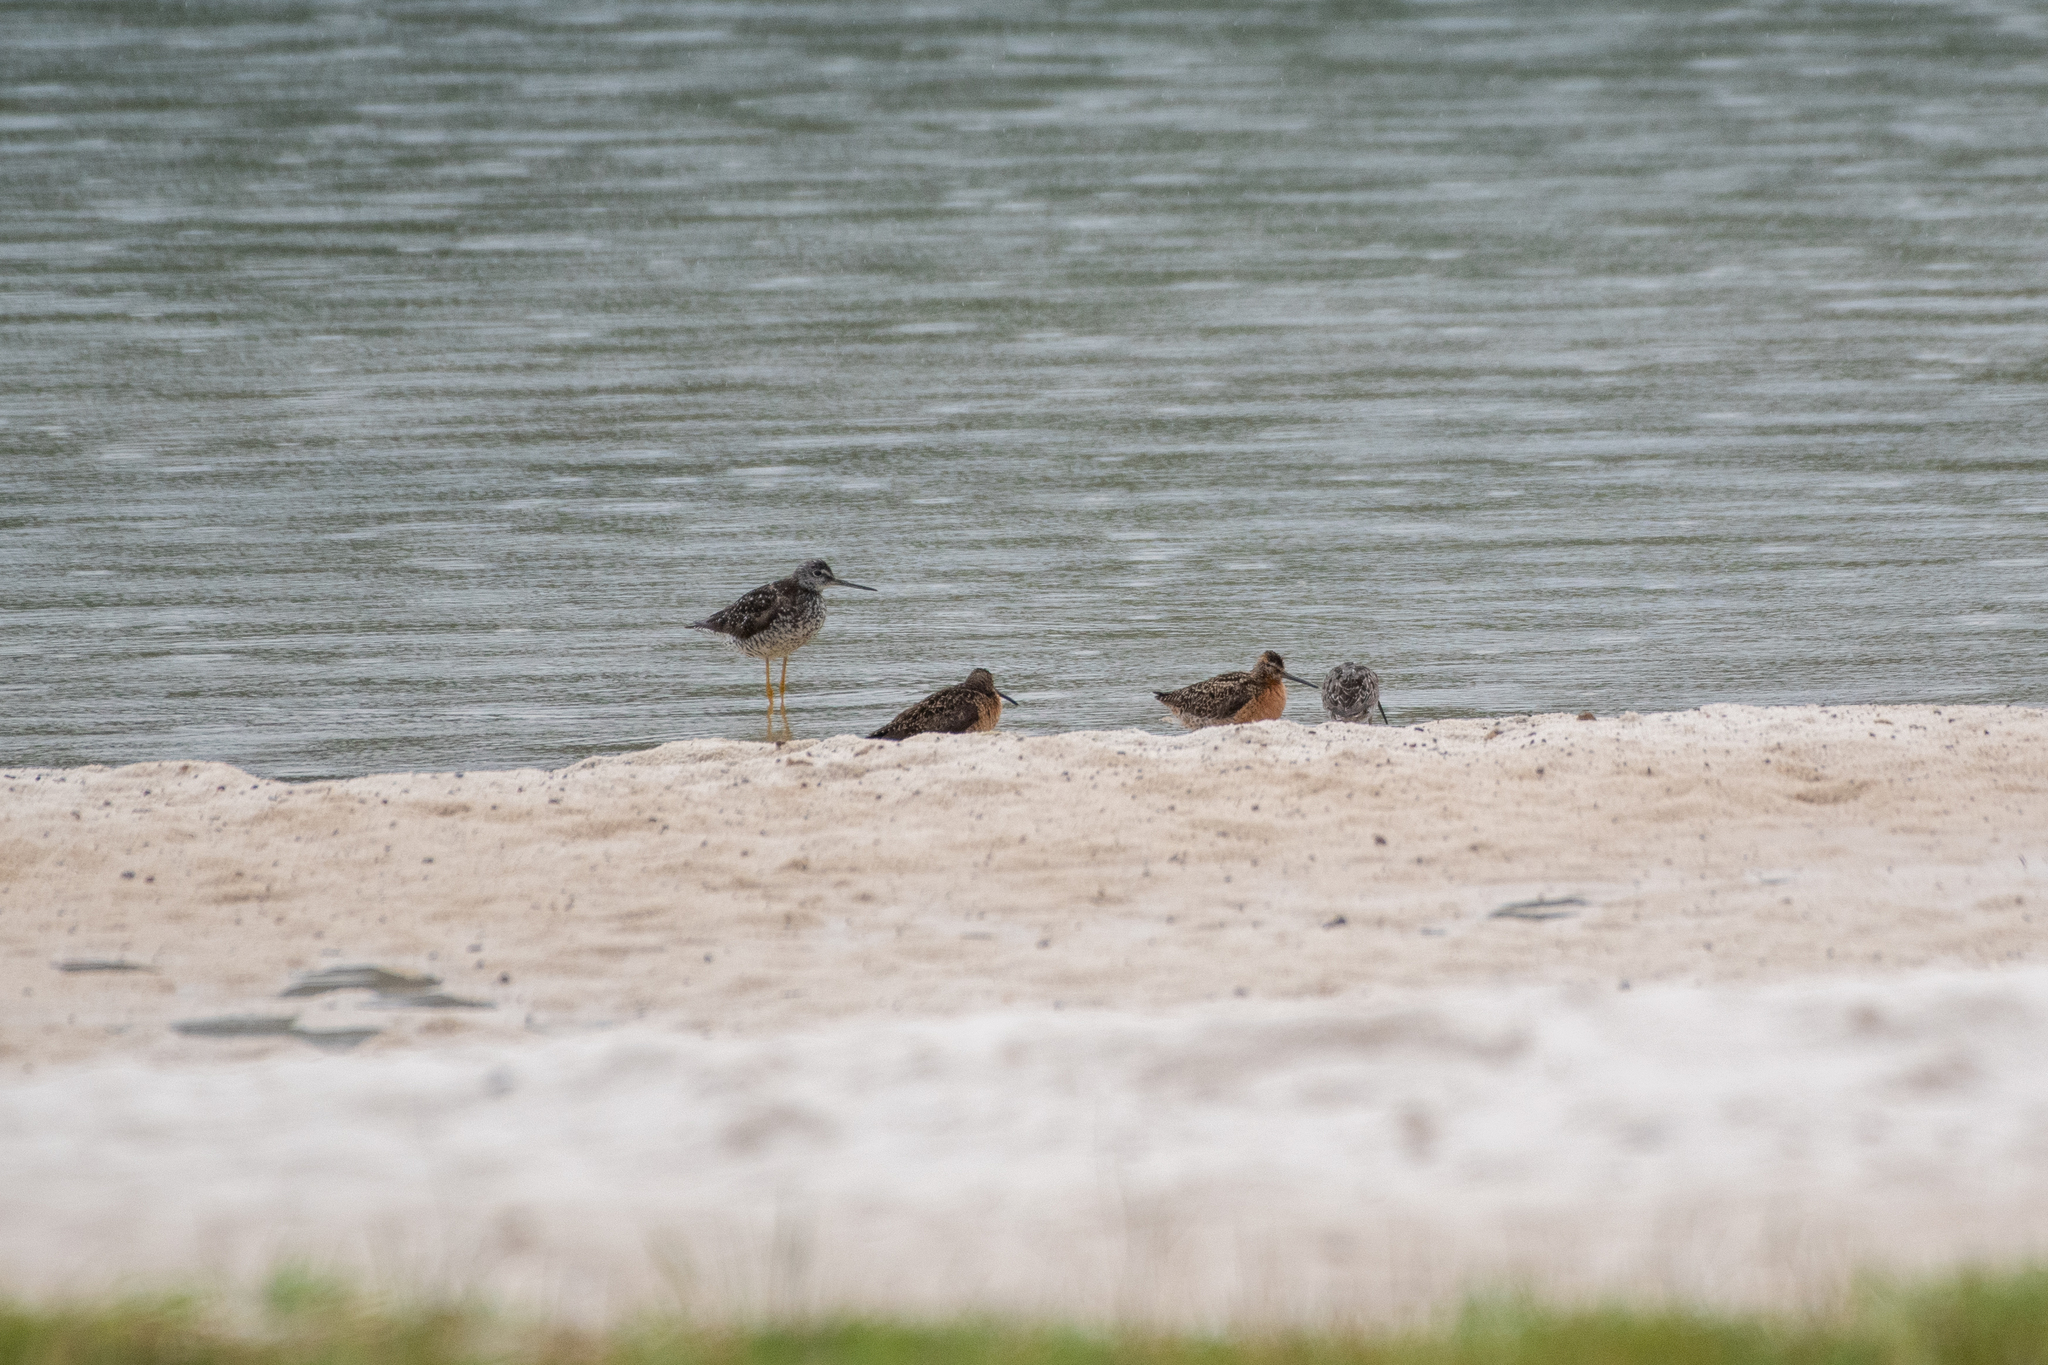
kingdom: Animalia
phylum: Chordata
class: Aves
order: Charadriiformes
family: Scolopacidae
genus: Limnodromus
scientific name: Limnodromus griseus
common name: Short-billed dowitcher
